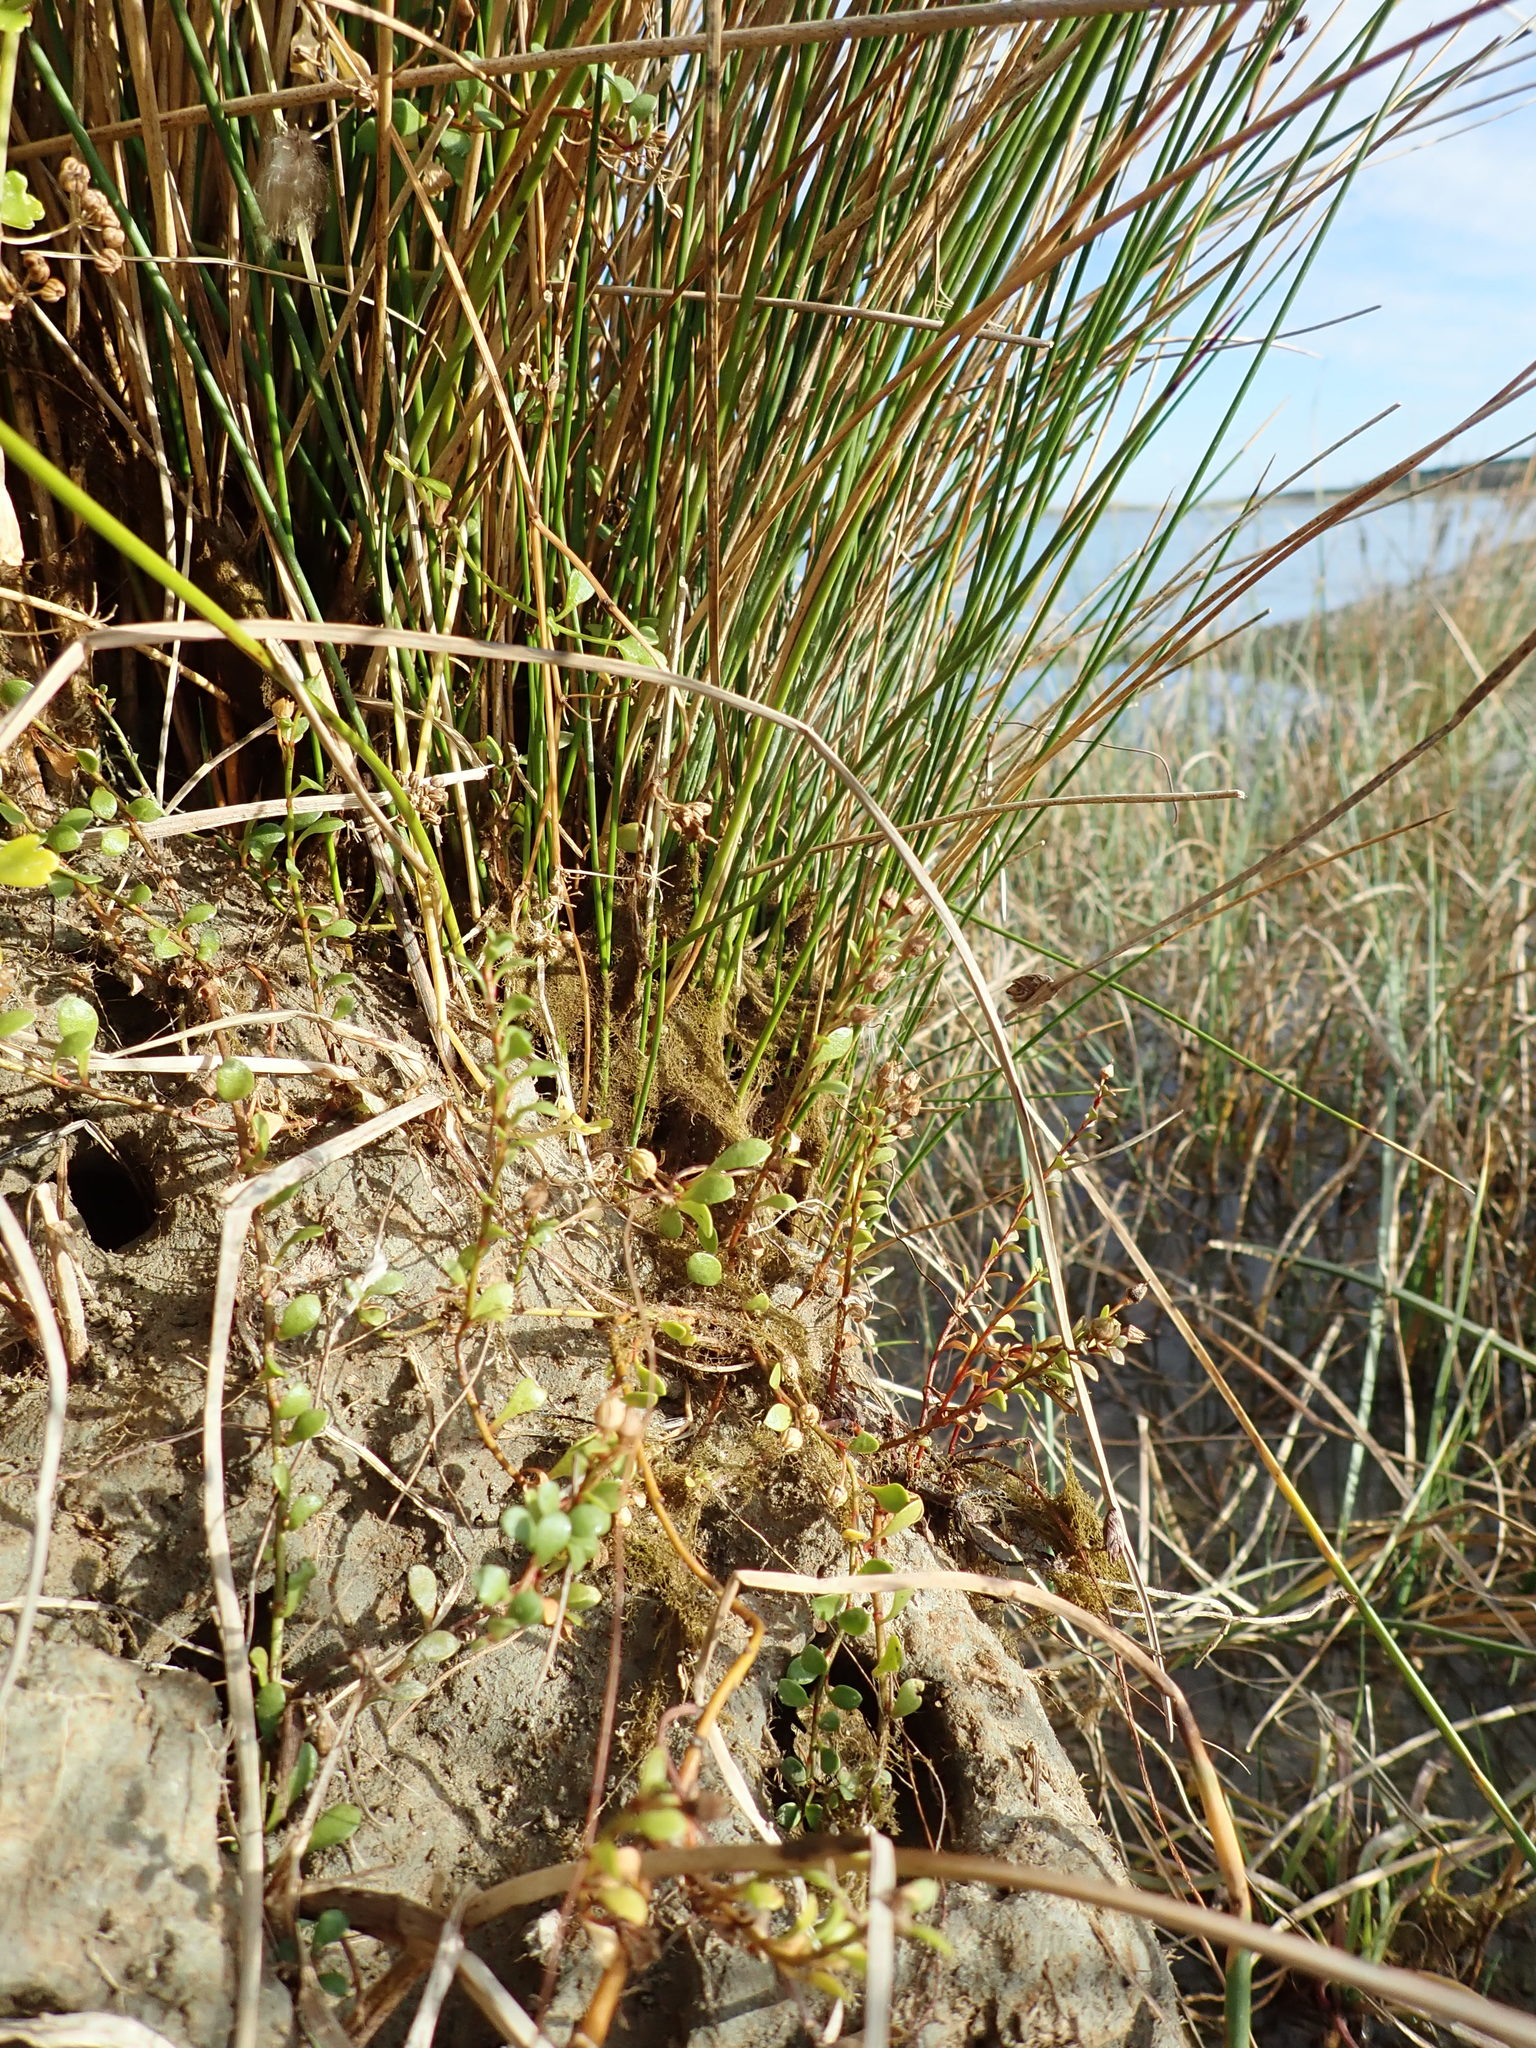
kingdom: Plantae
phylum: Tracheophyta
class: Magnoliopsida
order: Apiales
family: Apiaceae
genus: Apium
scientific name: Apium prostratum
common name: Prostrate marshwort
